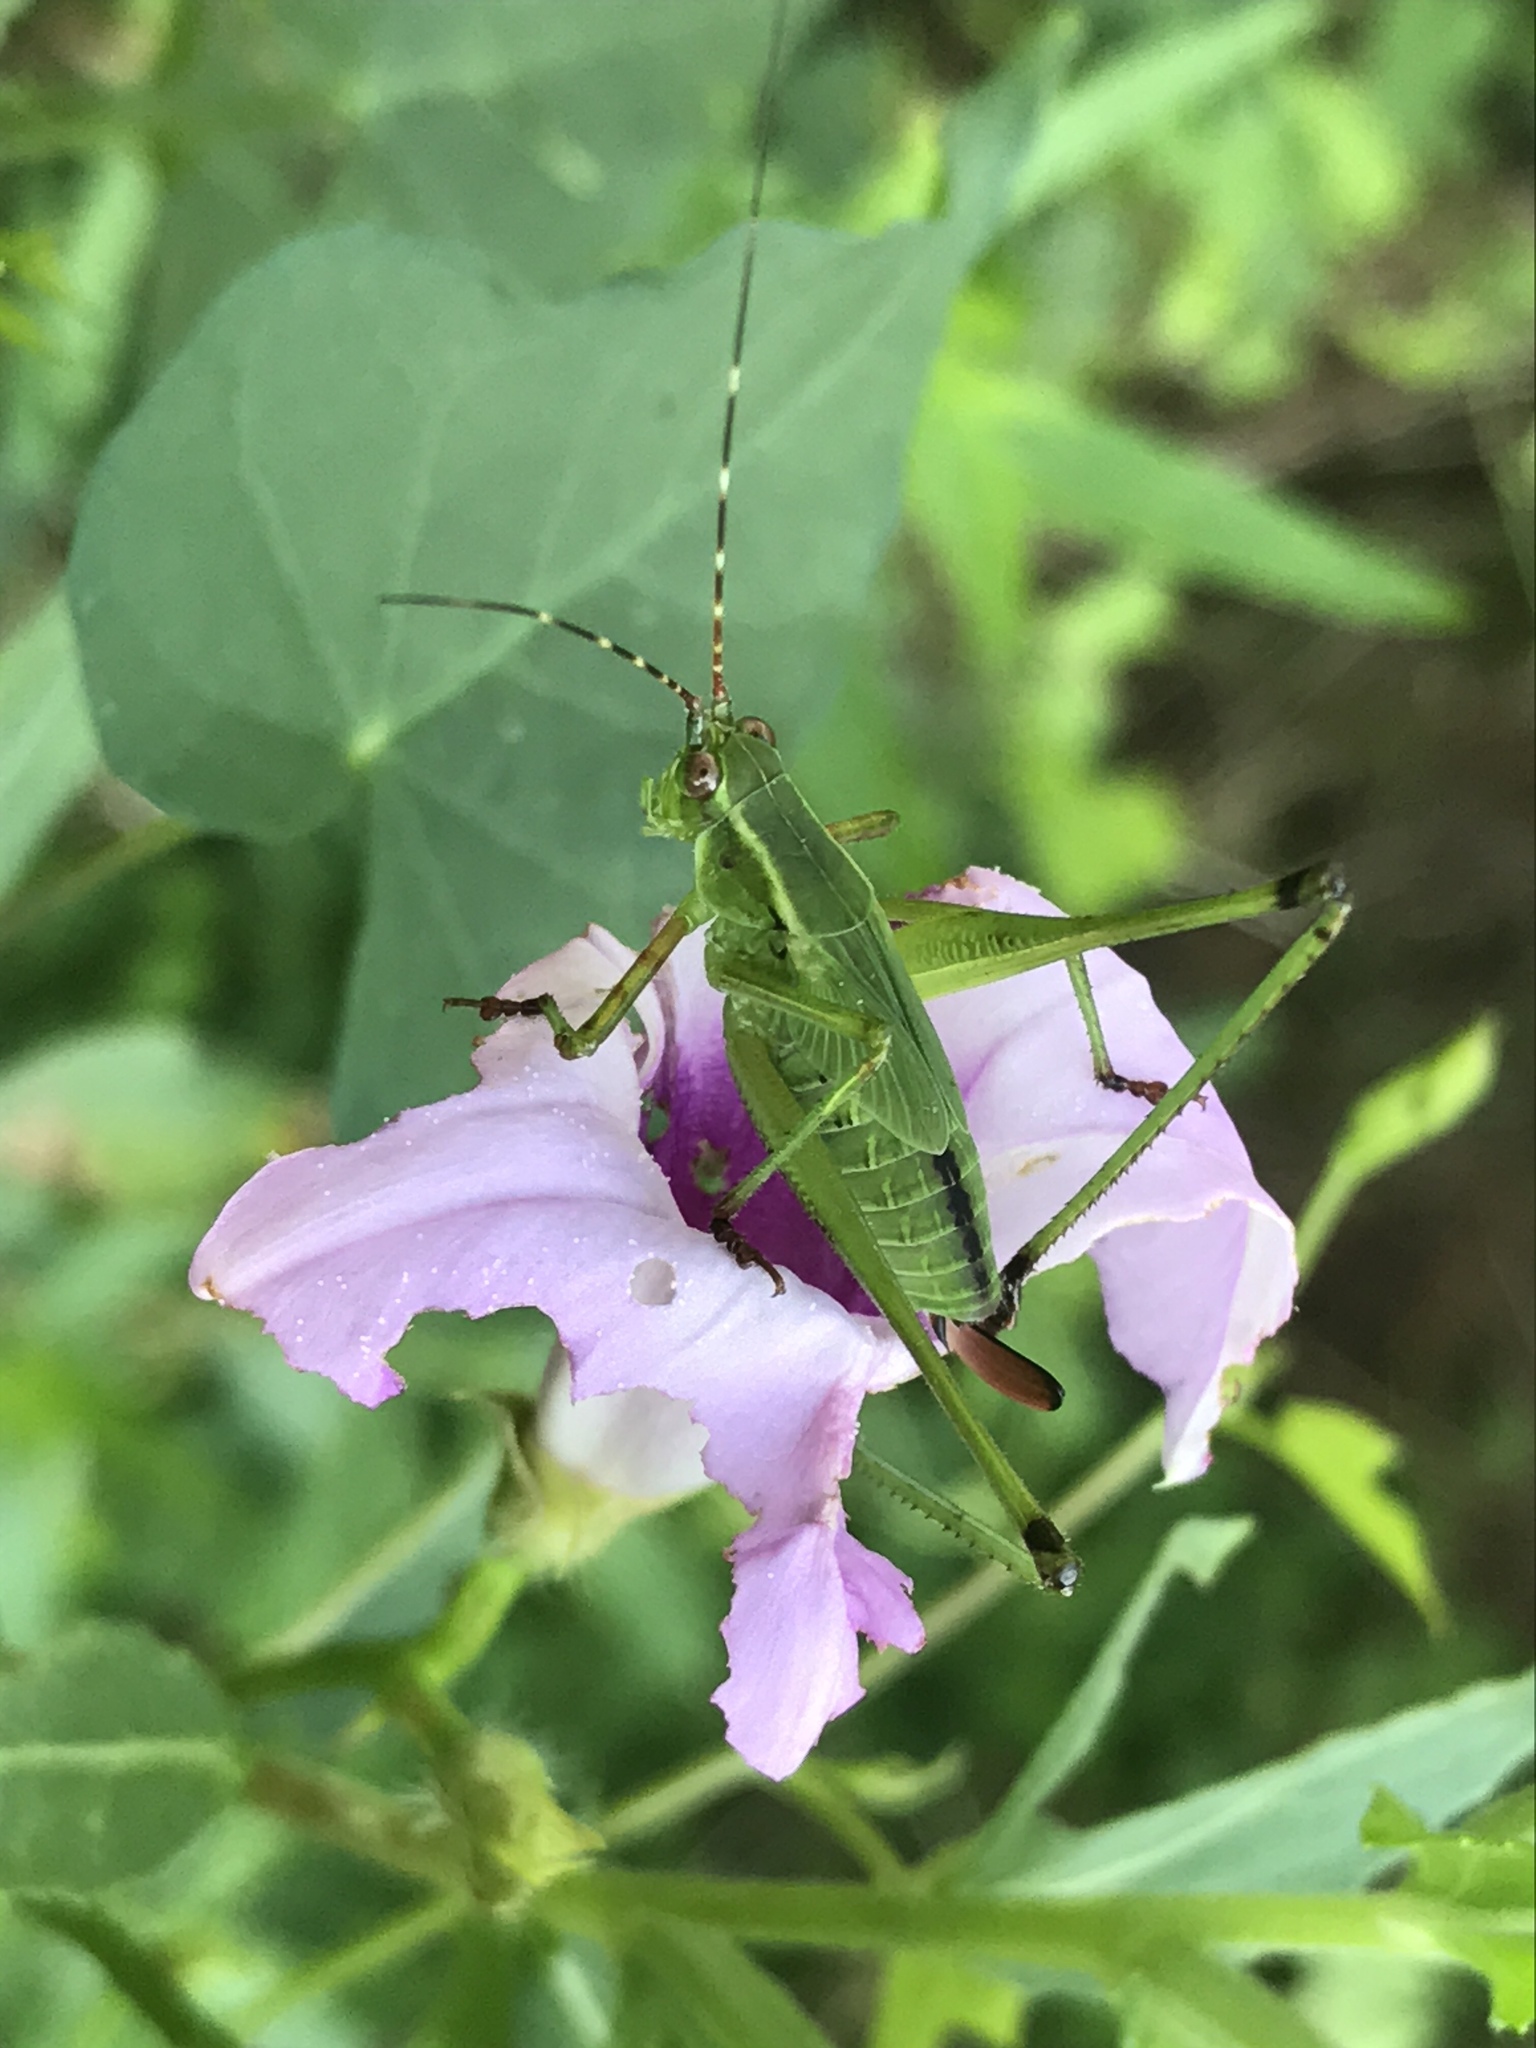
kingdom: Animalia
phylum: Arthropoda
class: Insecta
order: Orthoptera
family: Tettigoniidae
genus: Scudderia
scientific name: Scudderia furcata
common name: Fork-tailed bush katydid
